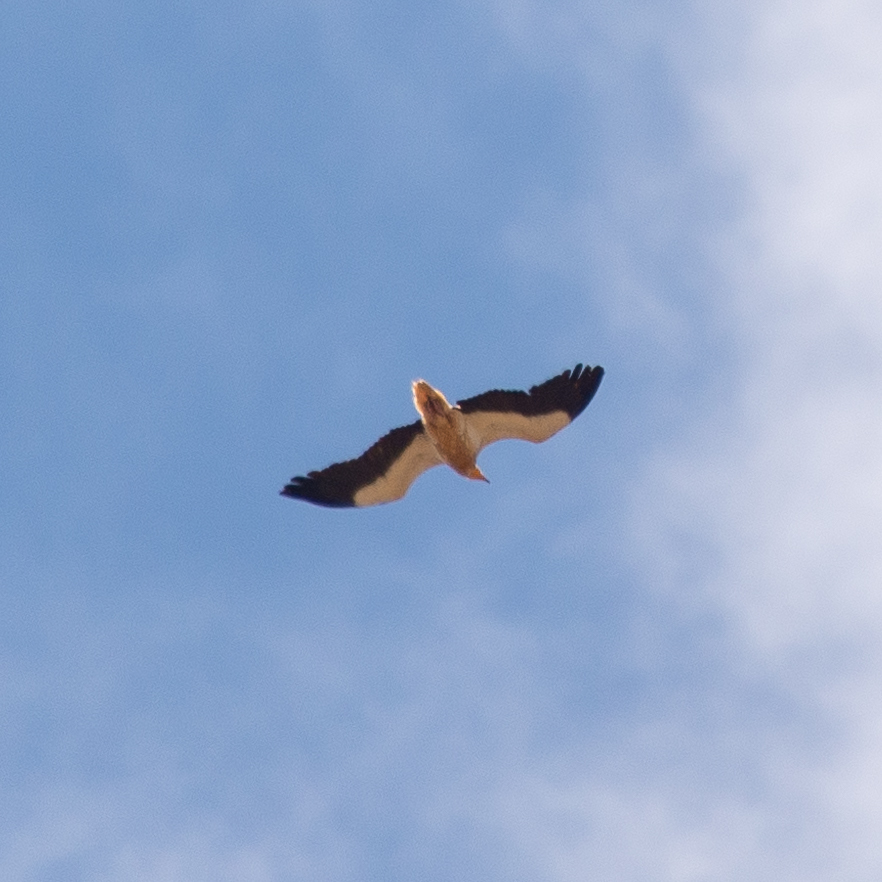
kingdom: Animalia
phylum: Chordata
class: Aves
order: Accipitriformes
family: Accipitridae
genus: Neophron
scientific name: Neophron percnopterus
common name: Egyptian vulture
